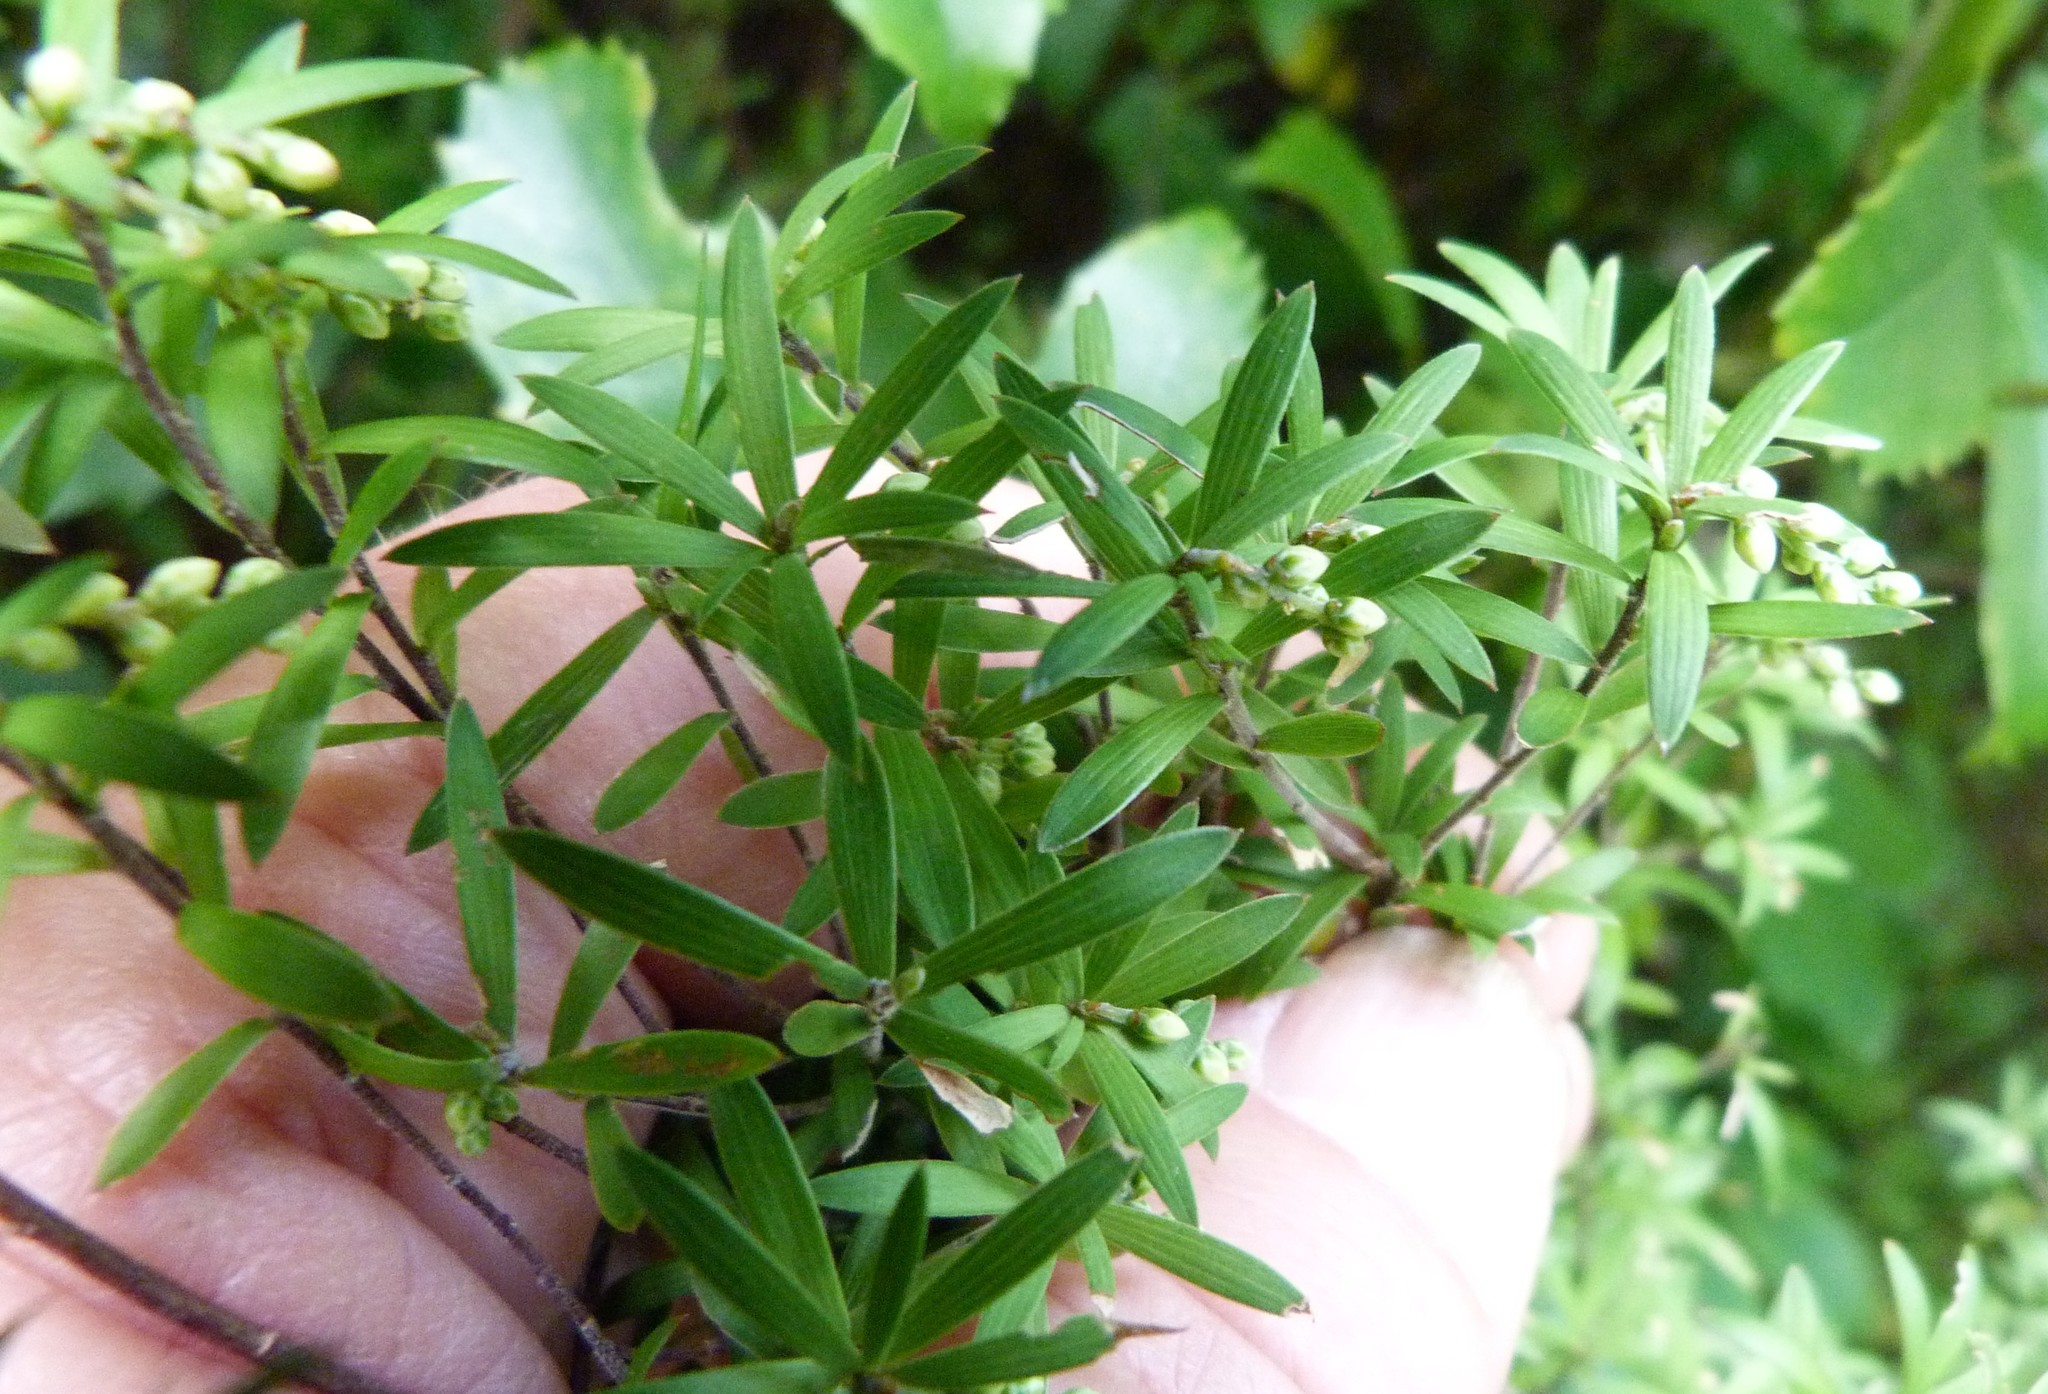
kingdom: Plantae
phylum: Tracheophyta
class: Magnoliopsida
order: Ericales
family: Ericaceae
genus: Leucopogon
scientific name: Leucopogon fasciculatus
